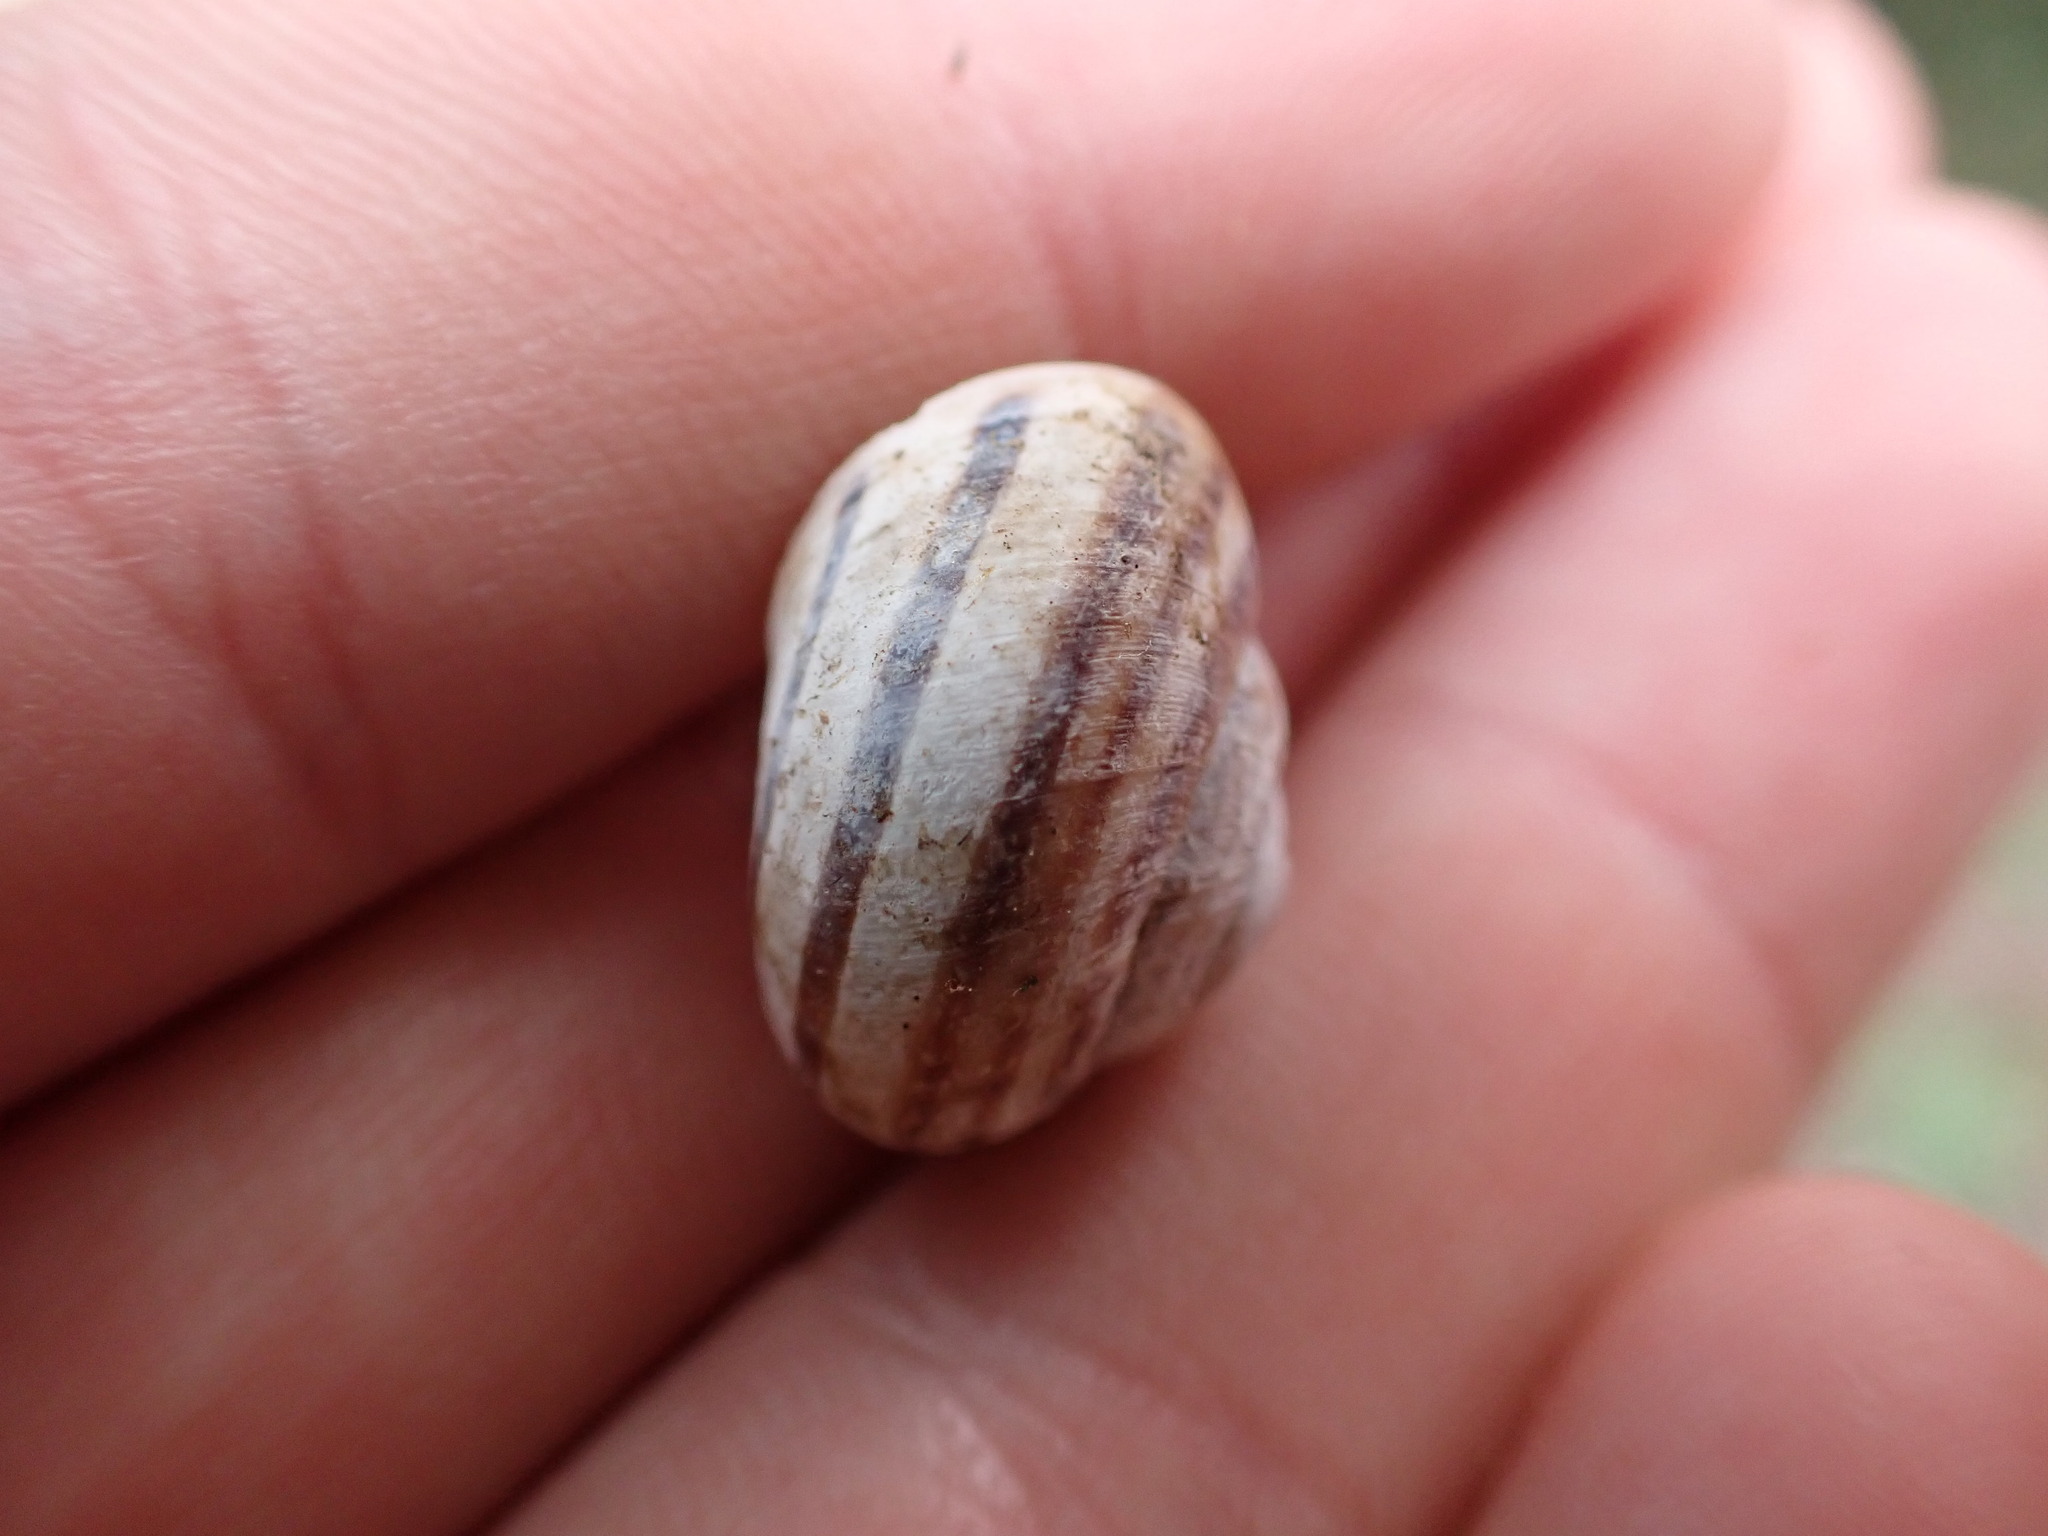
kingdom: Animalia
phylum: Mollusca
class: Gastropoda
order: Stylommatophora
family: Helicidae
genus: Eobania
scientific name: Eobania vermiculata
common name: Chocolateband snail
